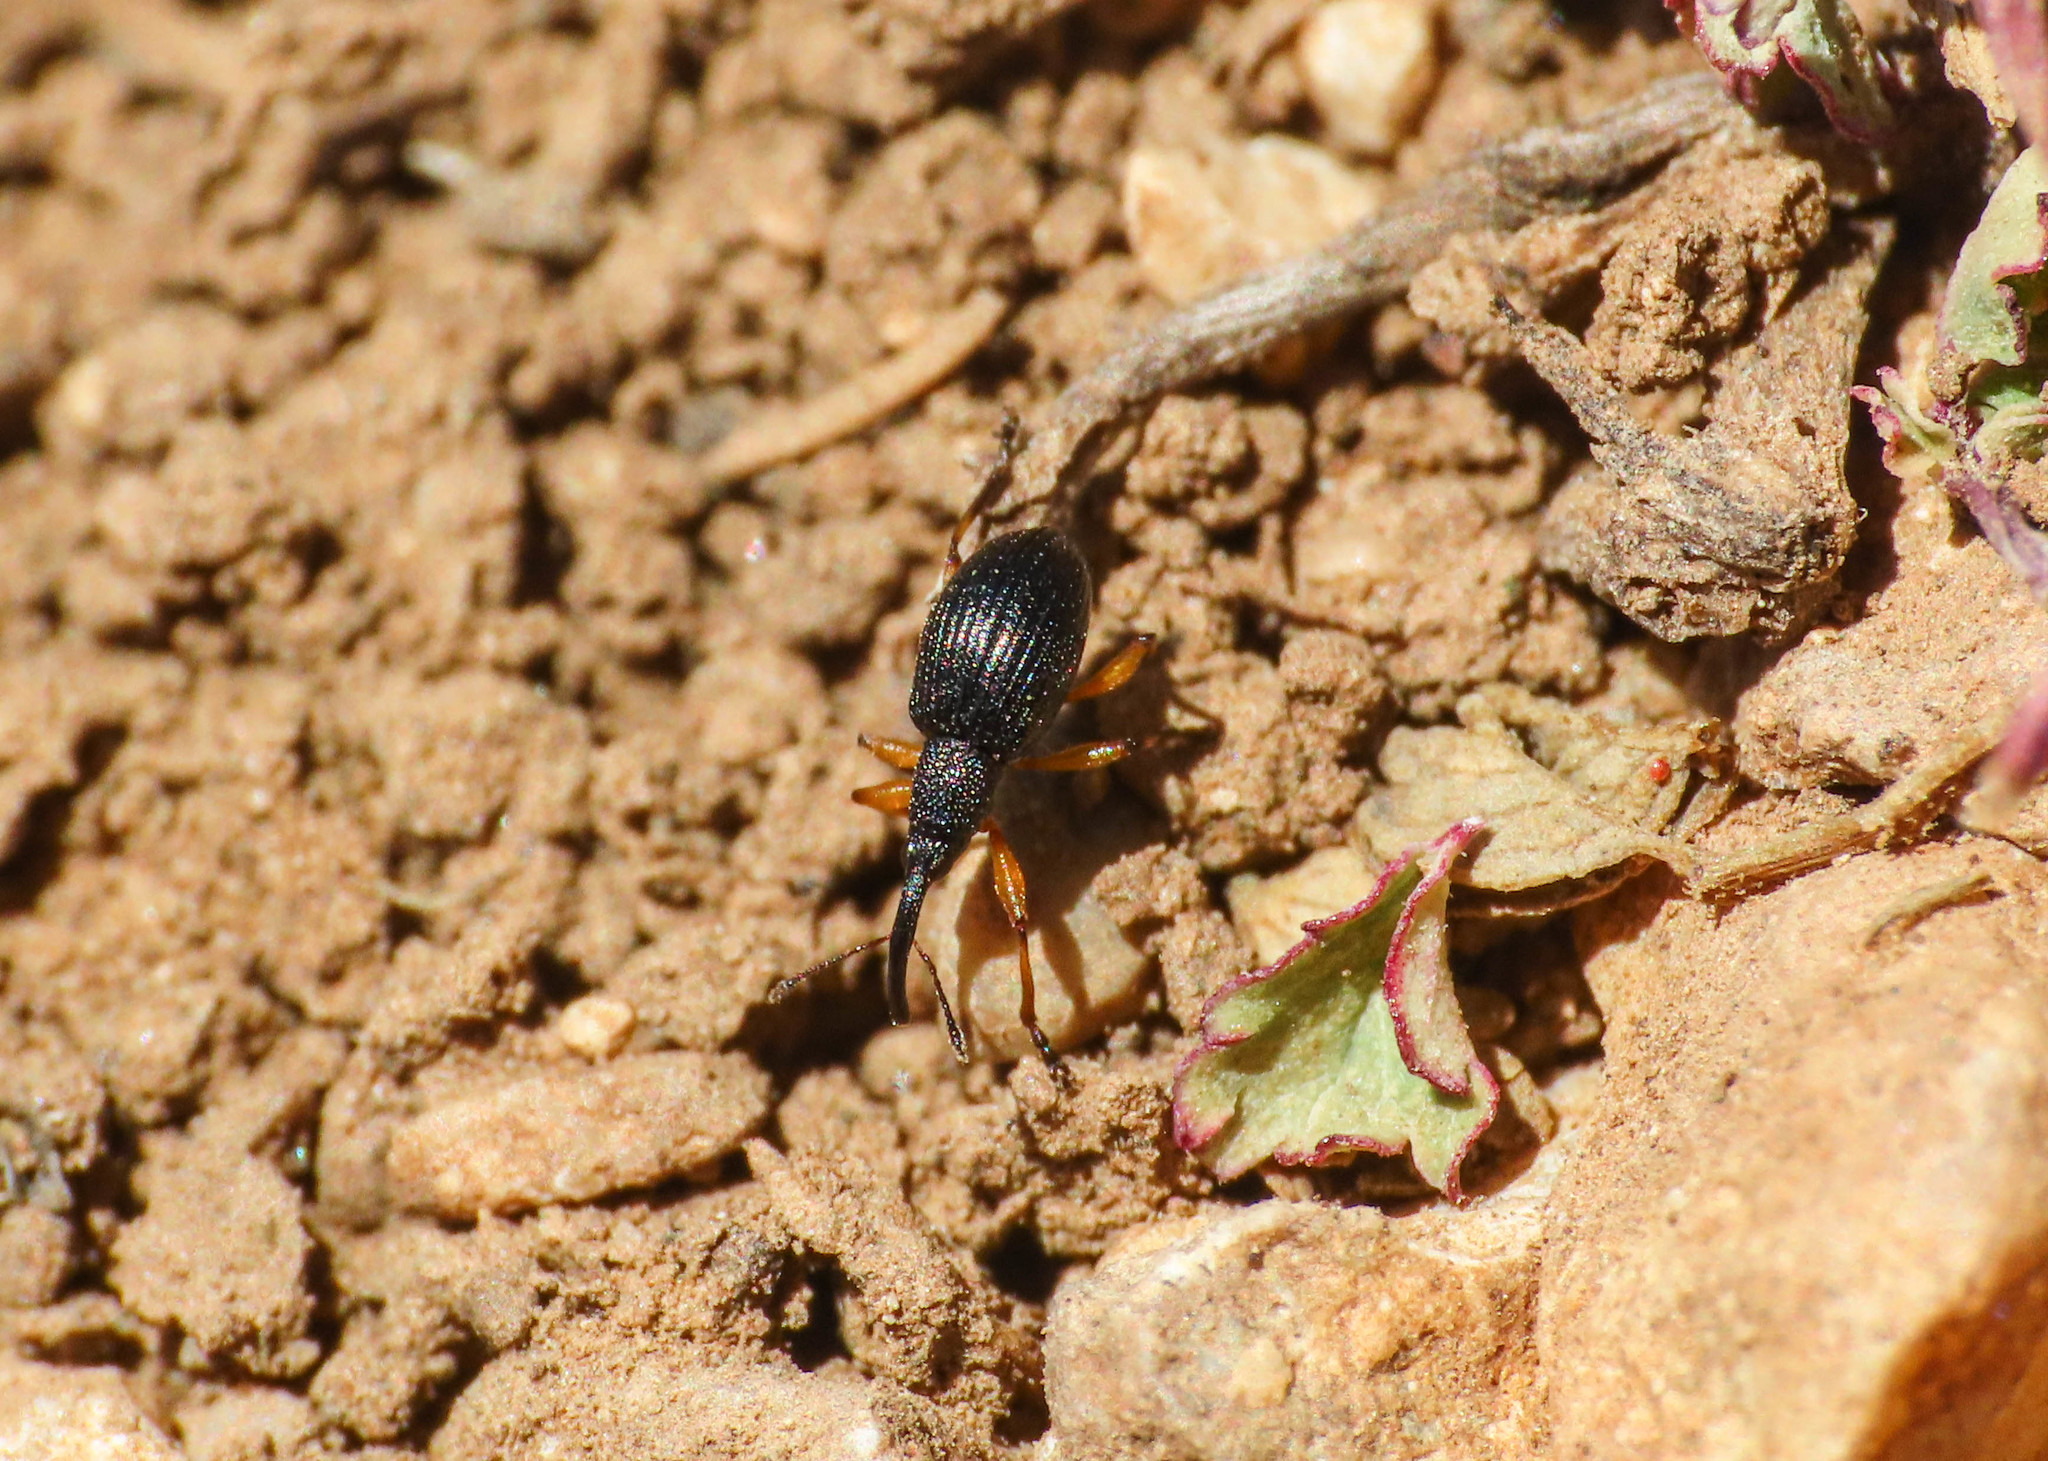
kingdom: Animalia
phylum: Arthropoda
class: Insecta
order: Coleoptera
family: Apionidae
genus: Protapion
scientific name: Protapion varipes
